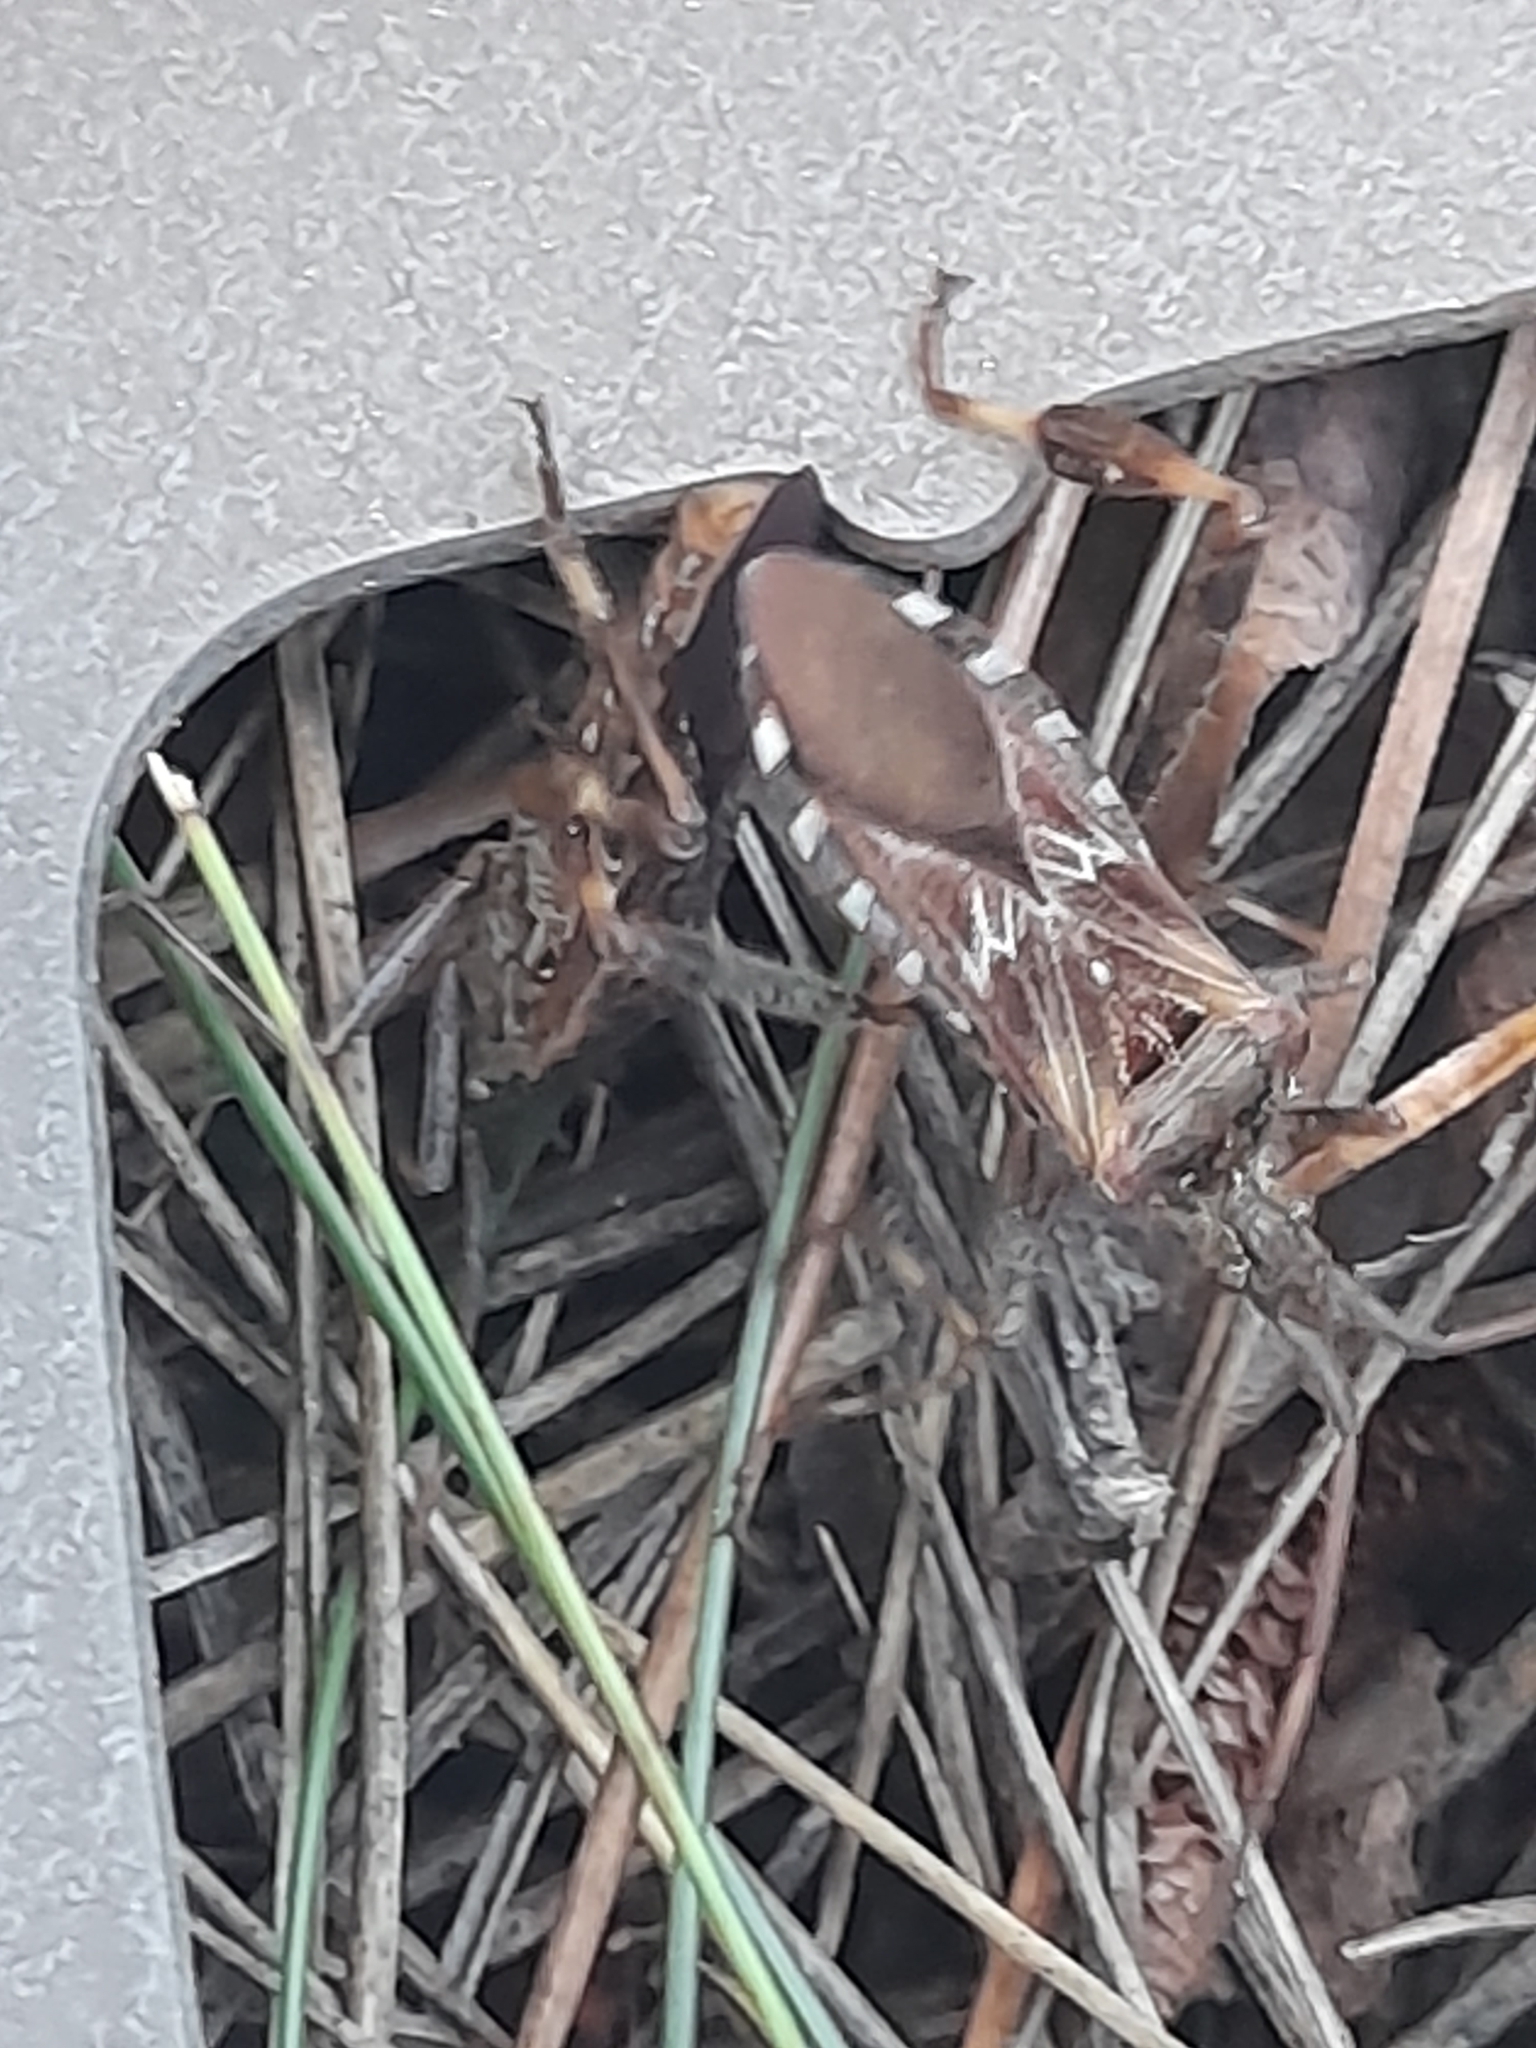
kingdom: Animalia
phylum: Arthropoda
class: Insecta
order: Hemiptera
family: Coreidae
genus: Leptoglossus
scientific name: Leptoglossus occidentalis
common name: Western conifer-seed bug
